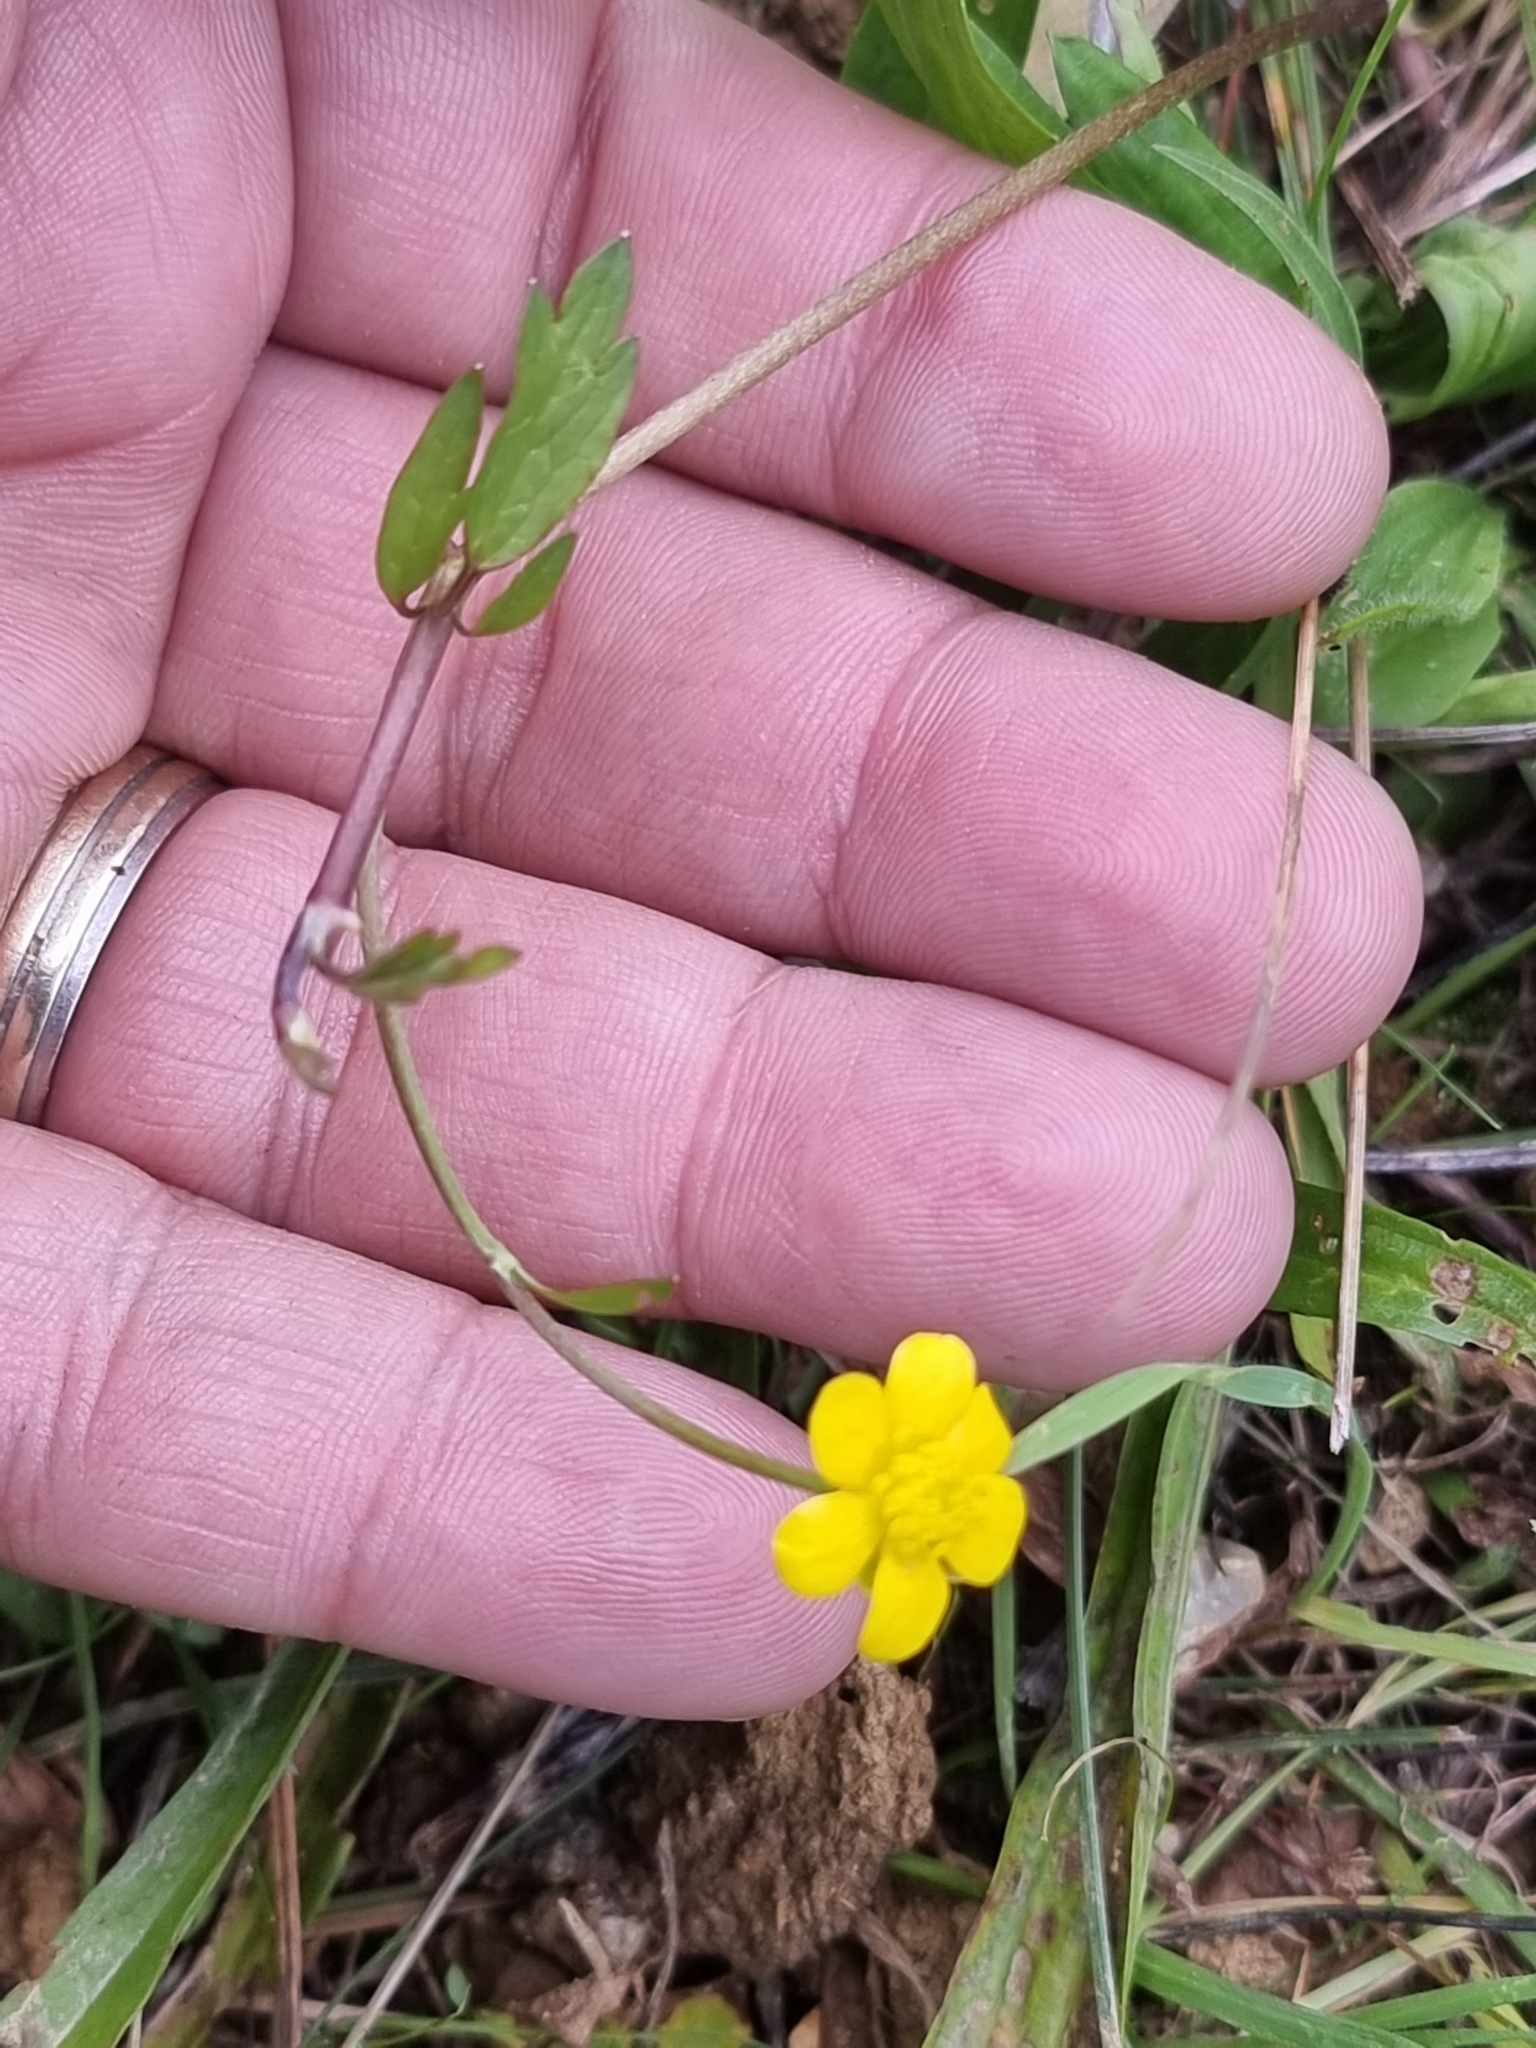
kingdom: Plantae
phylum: Tracheophyta
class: Magnoliopsida
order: Ranunculales
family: Ranunculaceae
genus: Ranunculus
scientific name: Ranunculus repens
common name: Creeping buttercup
